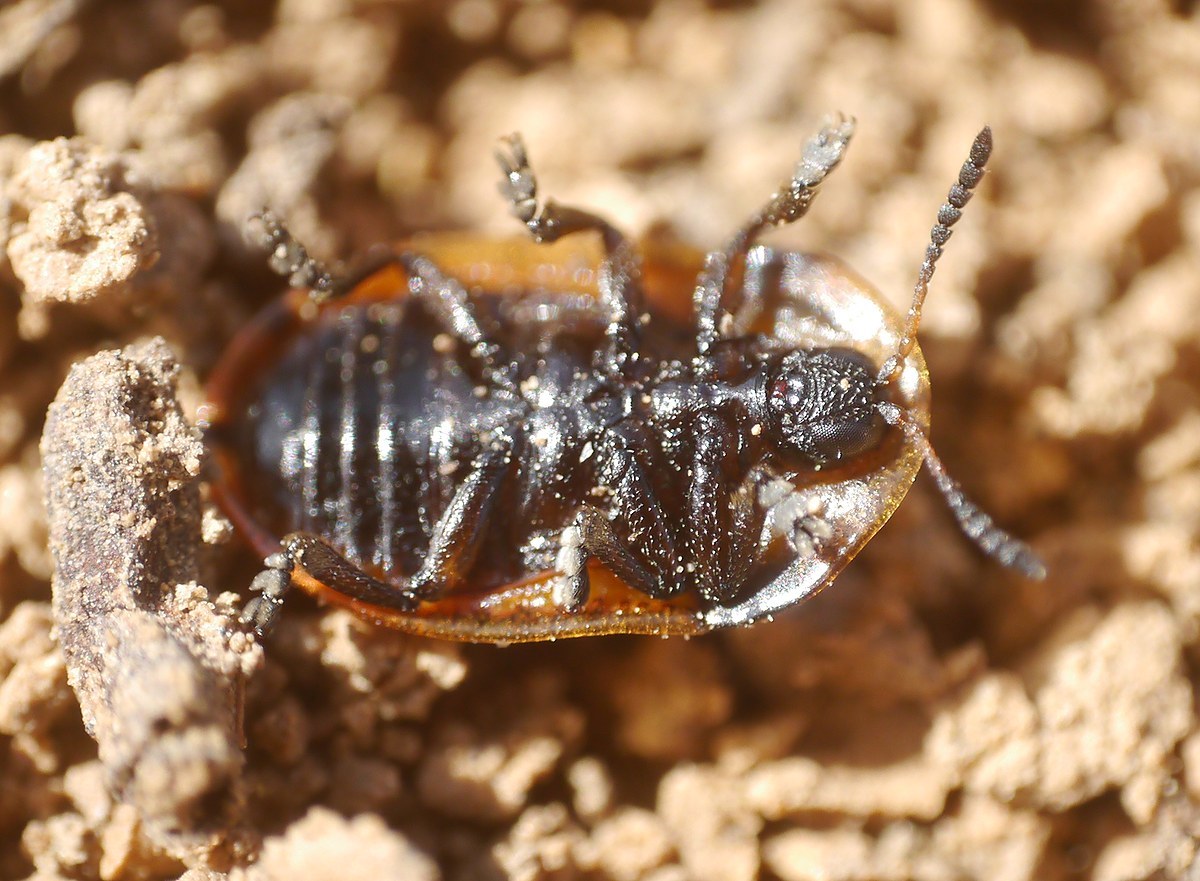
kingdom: Animalia
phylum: Arthropoda
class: Insecta
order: Coleoptera
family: Chrysomelidae
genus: Pilemostoma
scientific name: Pilemostoma fastuosa
